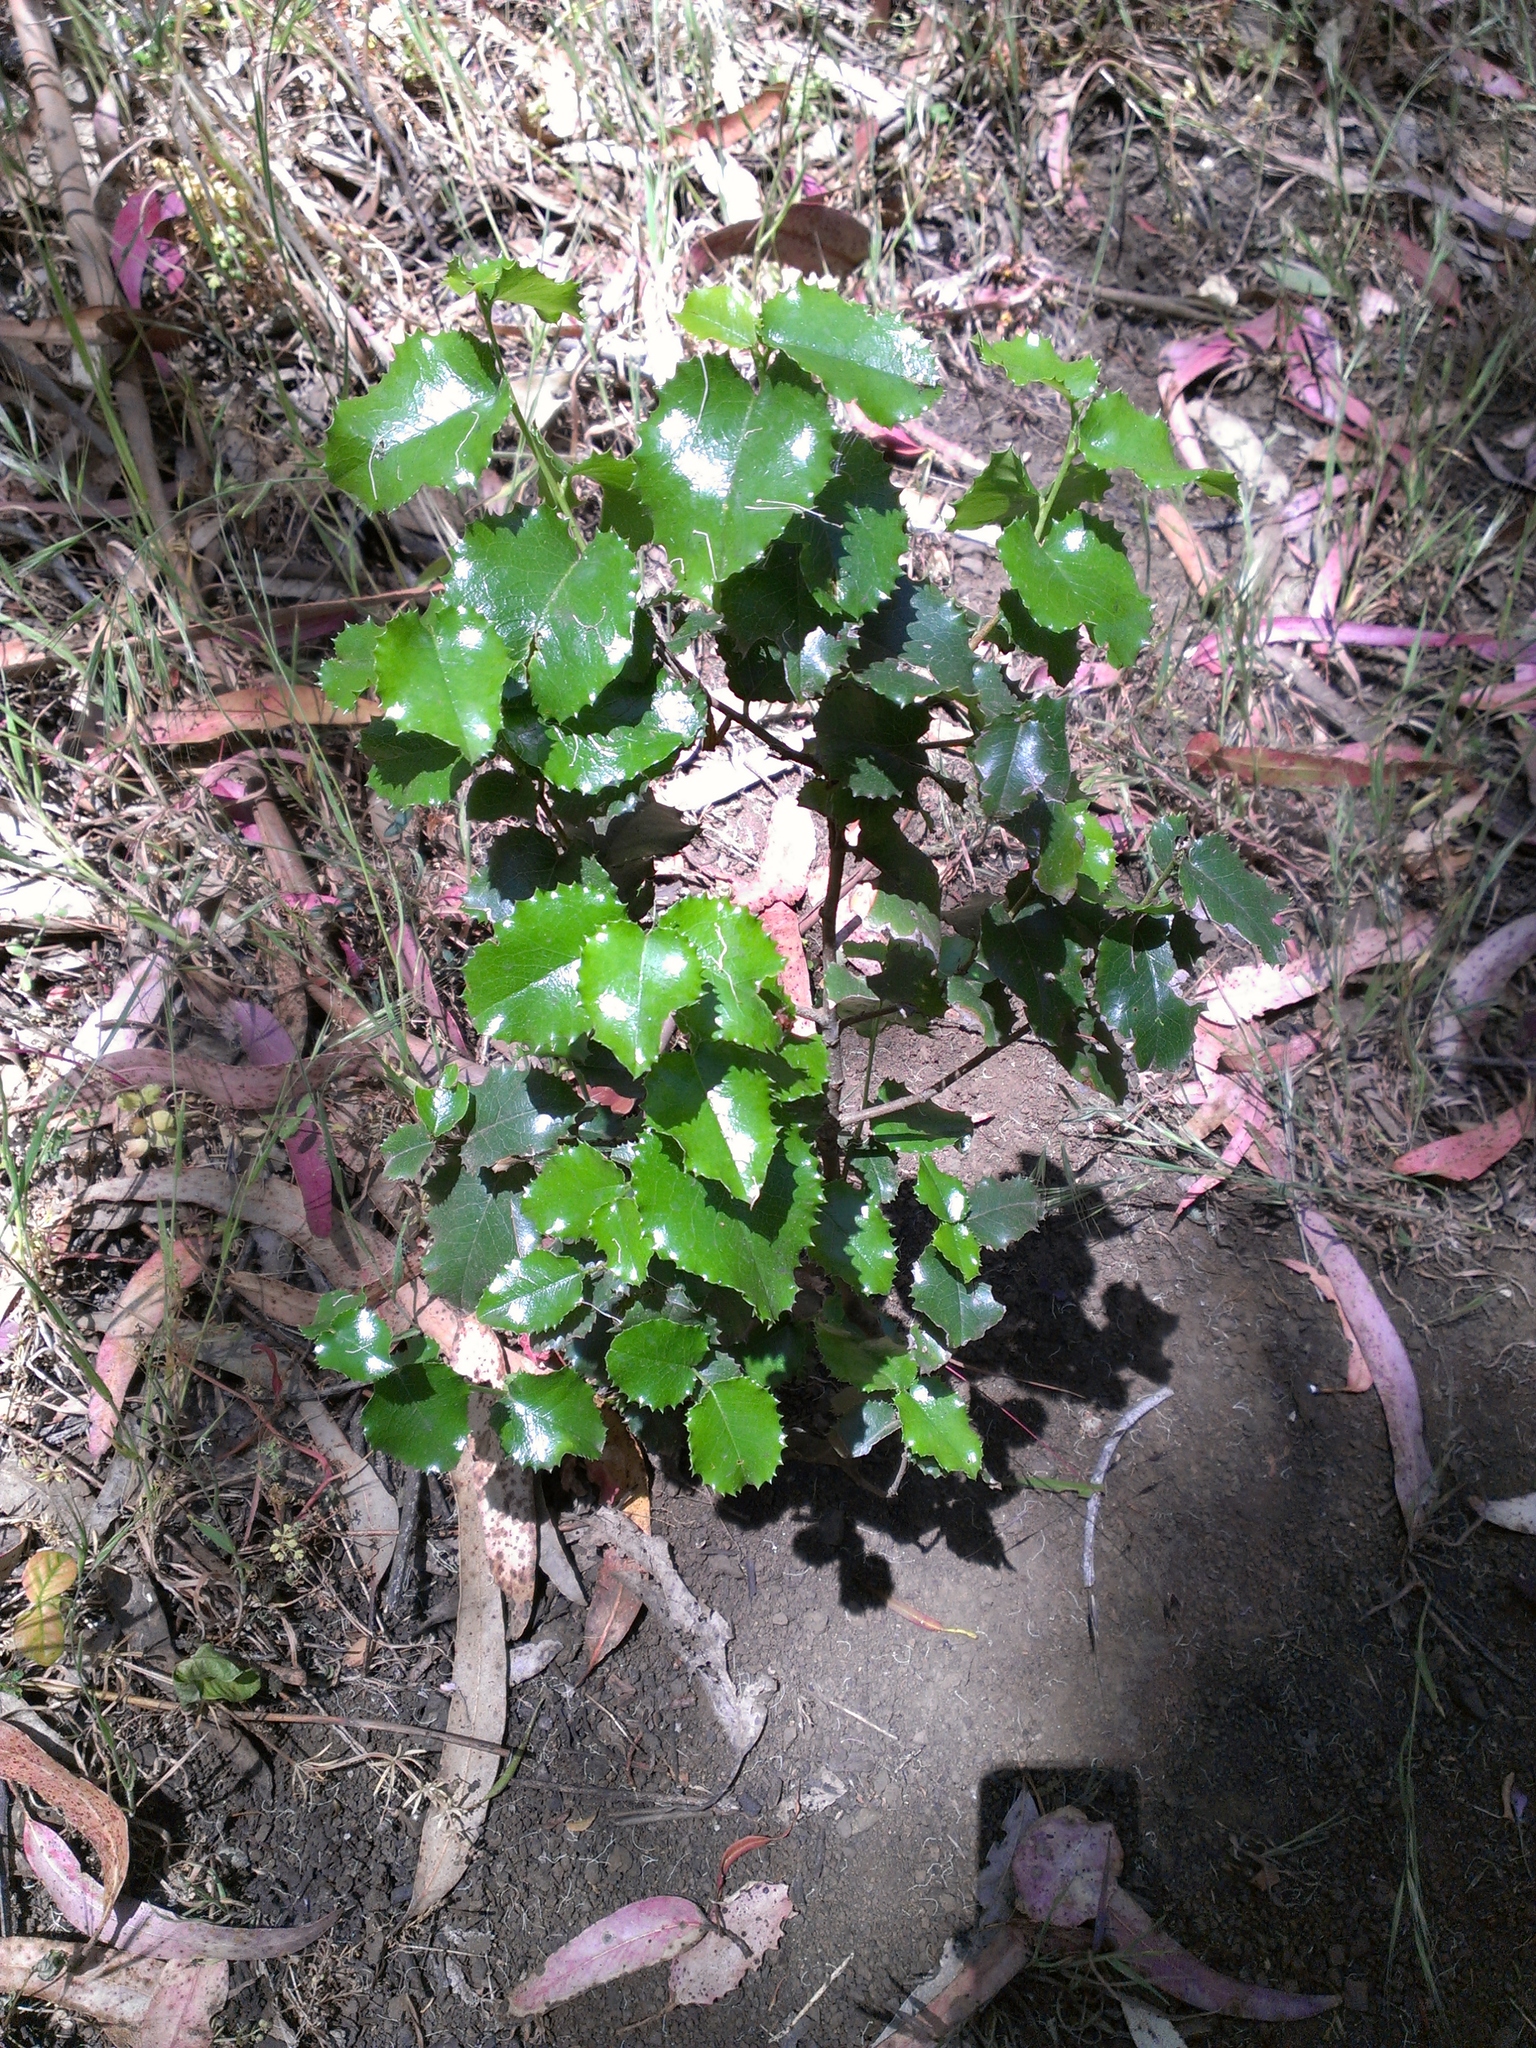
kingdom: Plantae
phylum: Tracheophyta
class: Magnoliopsida
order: Rosales
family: Rosaceae
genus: Prunus
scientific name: Prunus ilicifolia
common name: Hollyleaf cherry
